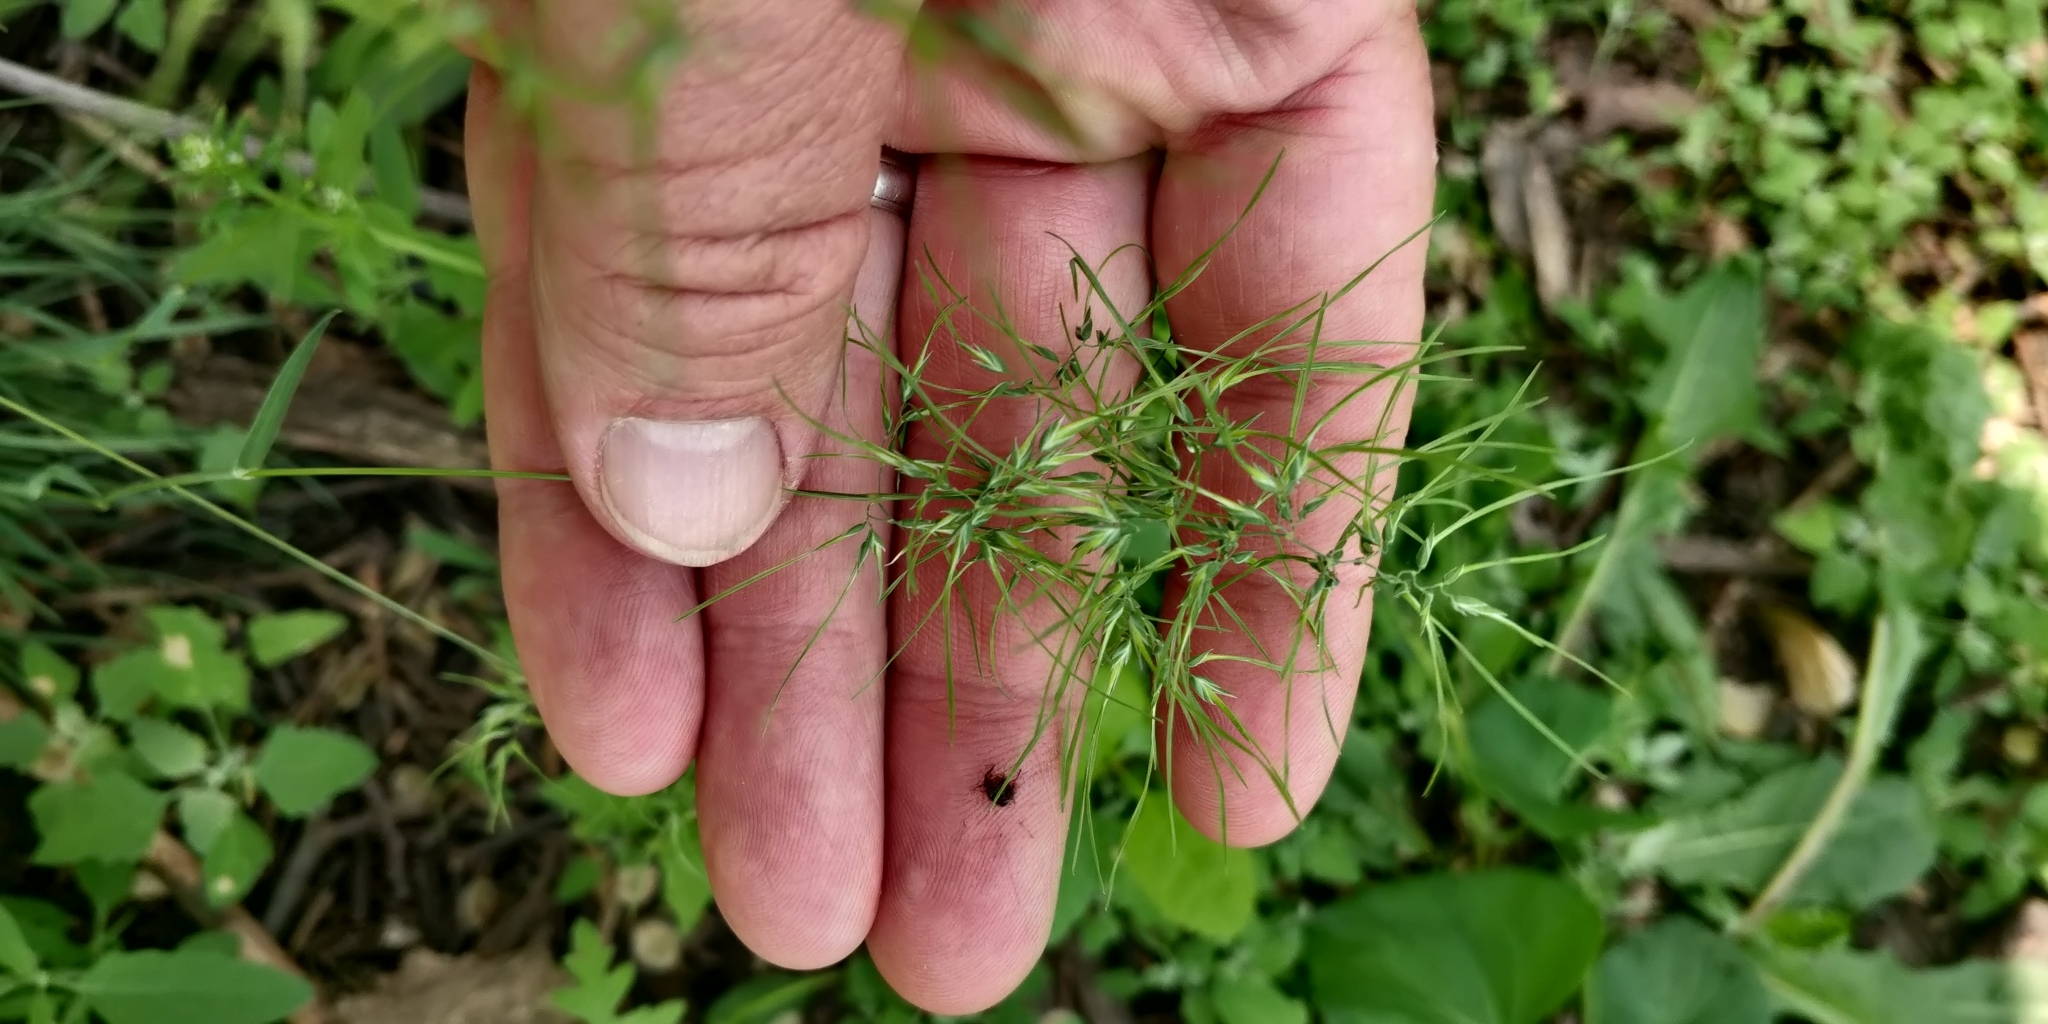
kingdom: Plantae
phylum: Tracheophyta
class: Liliopsida
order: Poales
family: Poaceae
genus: Poa
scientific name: Poa bulbosa
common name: Bulbous bluegrass
